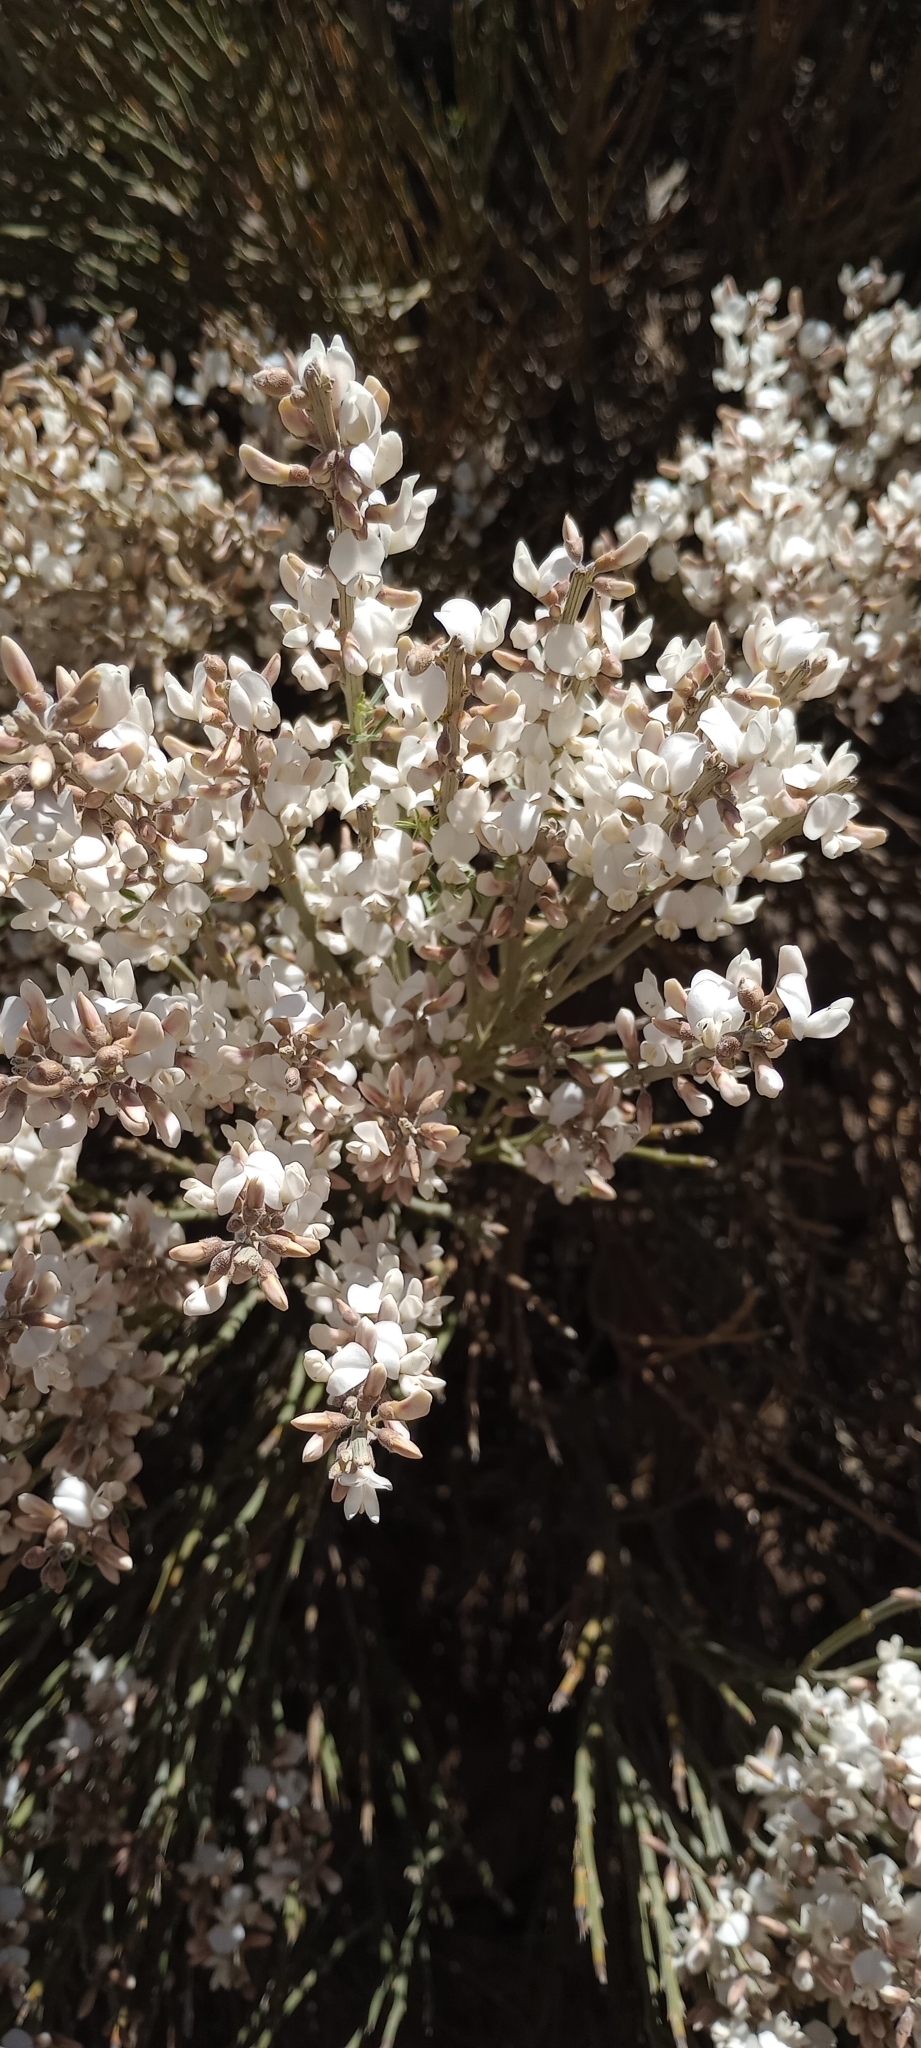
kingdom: Plantae
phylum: Tracheophyta
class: Magnoliopsida
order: Fabales
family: Fabaceae
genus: Cytisus
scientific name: Cytisus supranubius
